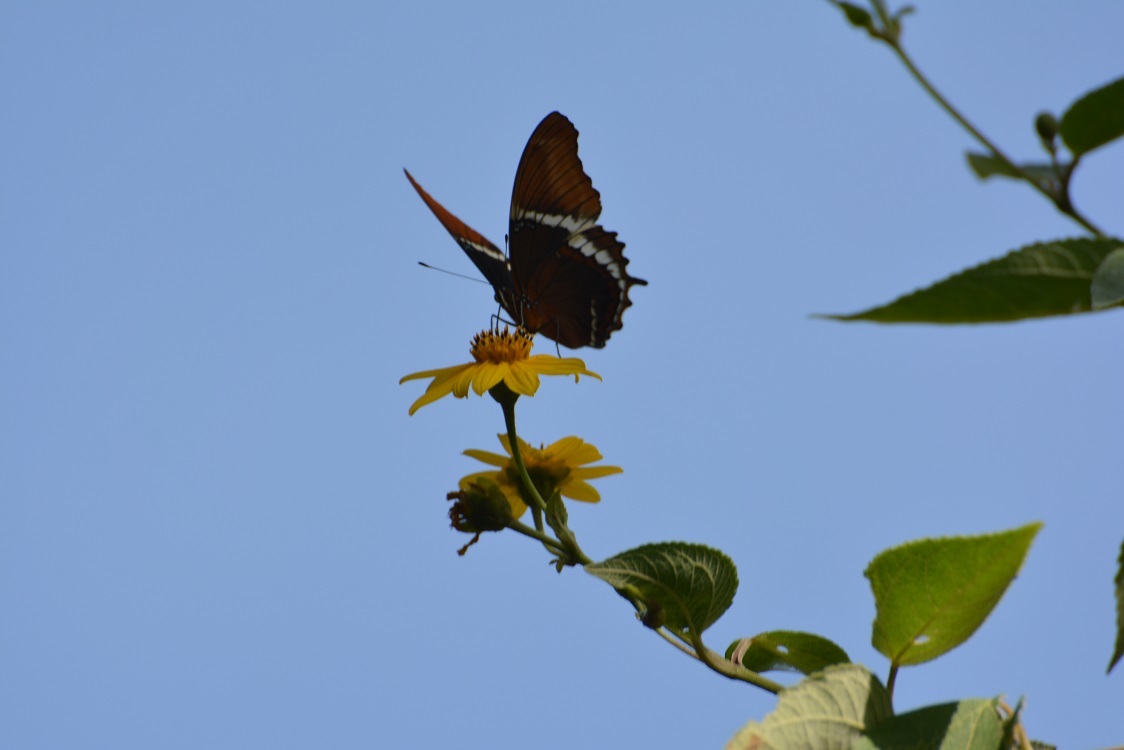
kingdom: Animalia
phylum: Arthropoda
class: Insecta
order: Lepidoptera
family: Nymphalidae
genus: Siproeta
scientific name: Siproeta epaphus
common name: Rusty-tipped page
